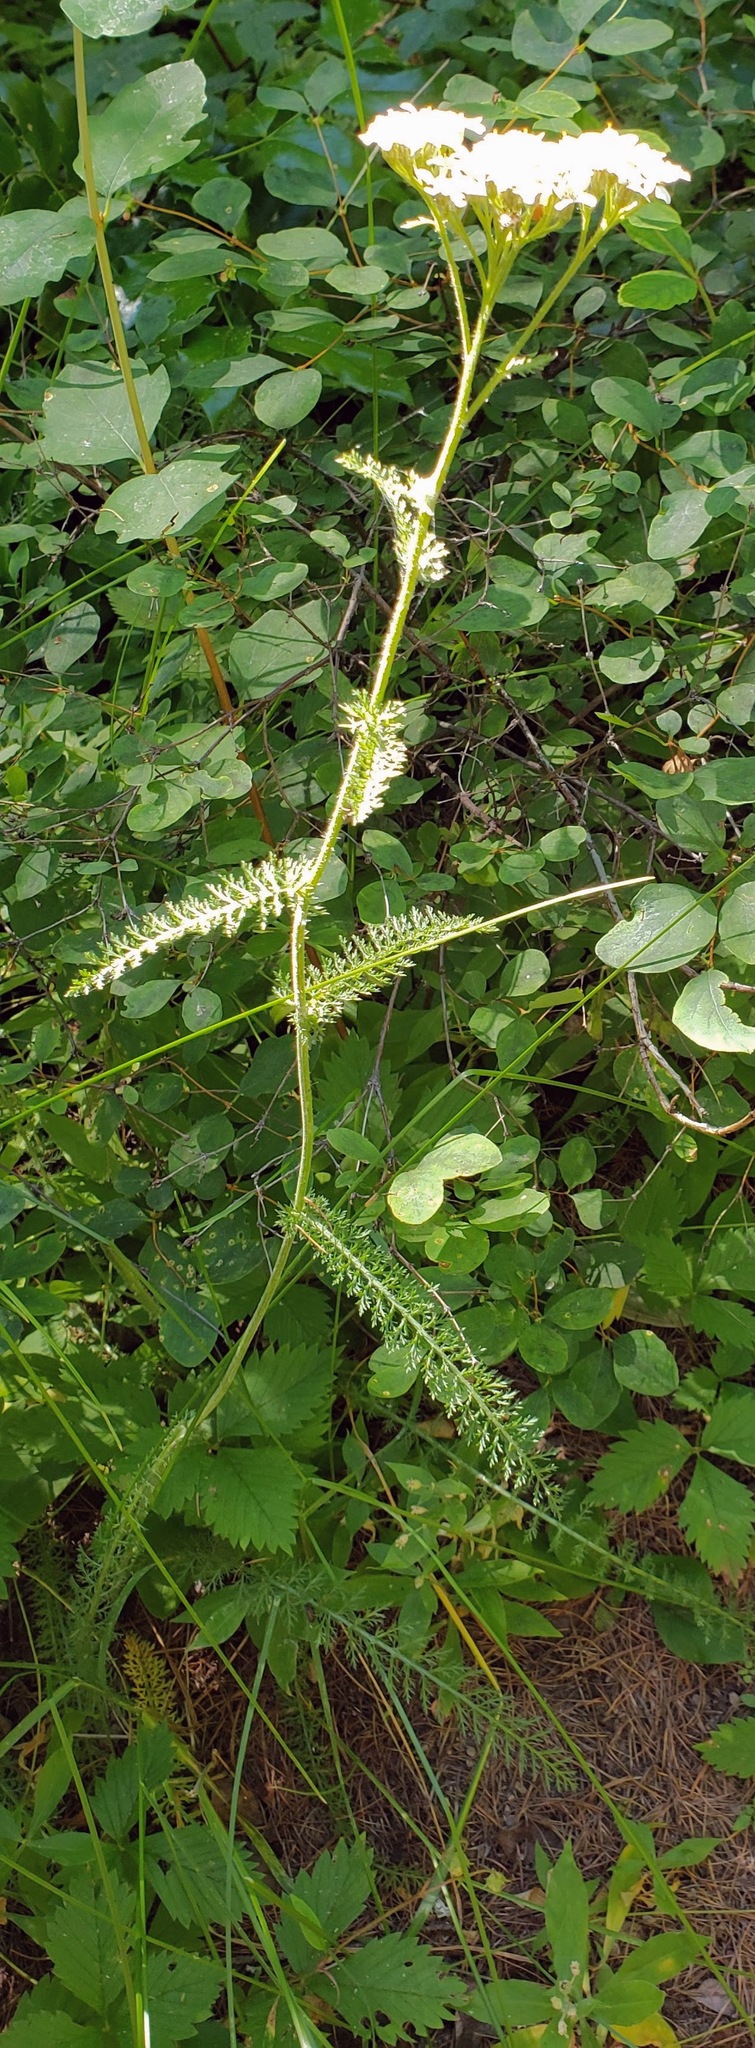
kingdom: Plantae
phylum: Tracheophyta
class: Magnoliopsida
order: Asterales
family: Asteraceae
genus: Achillea
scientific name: Achillea millefolium
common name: Yarrow
